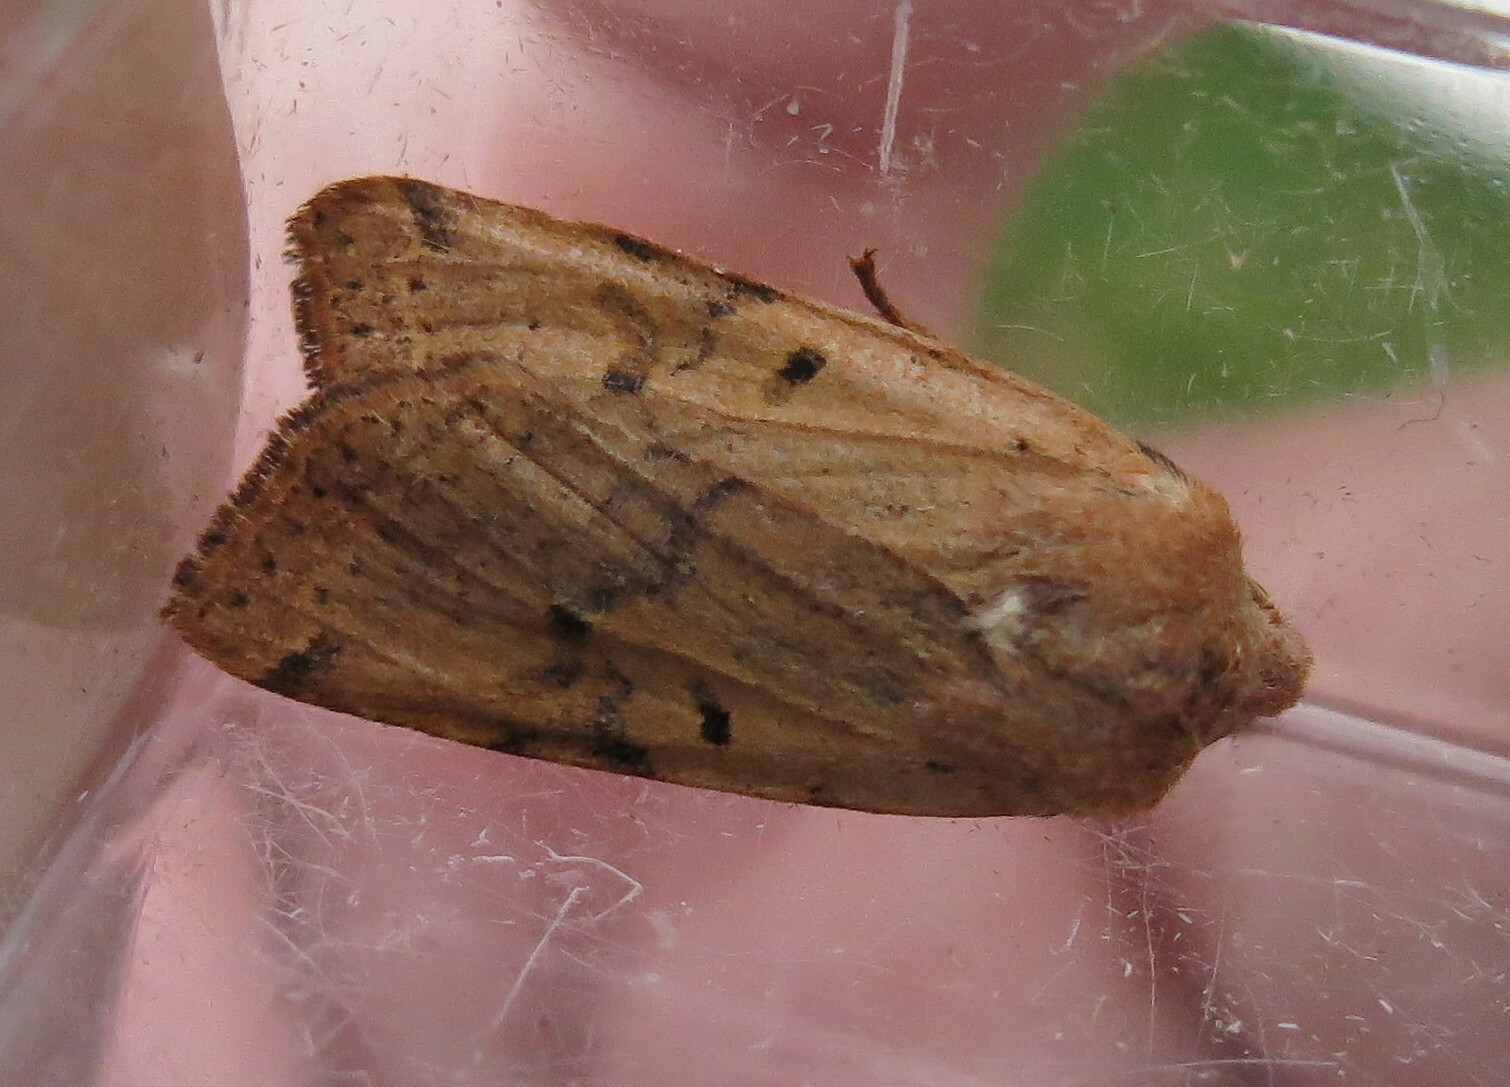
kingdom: Animalia
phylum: Arthropoda
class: Insecta
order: Lepidoptera
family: Noctuidae
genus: Agrochola
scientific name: Agrochola lychnidis
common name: Beaded chestnut
